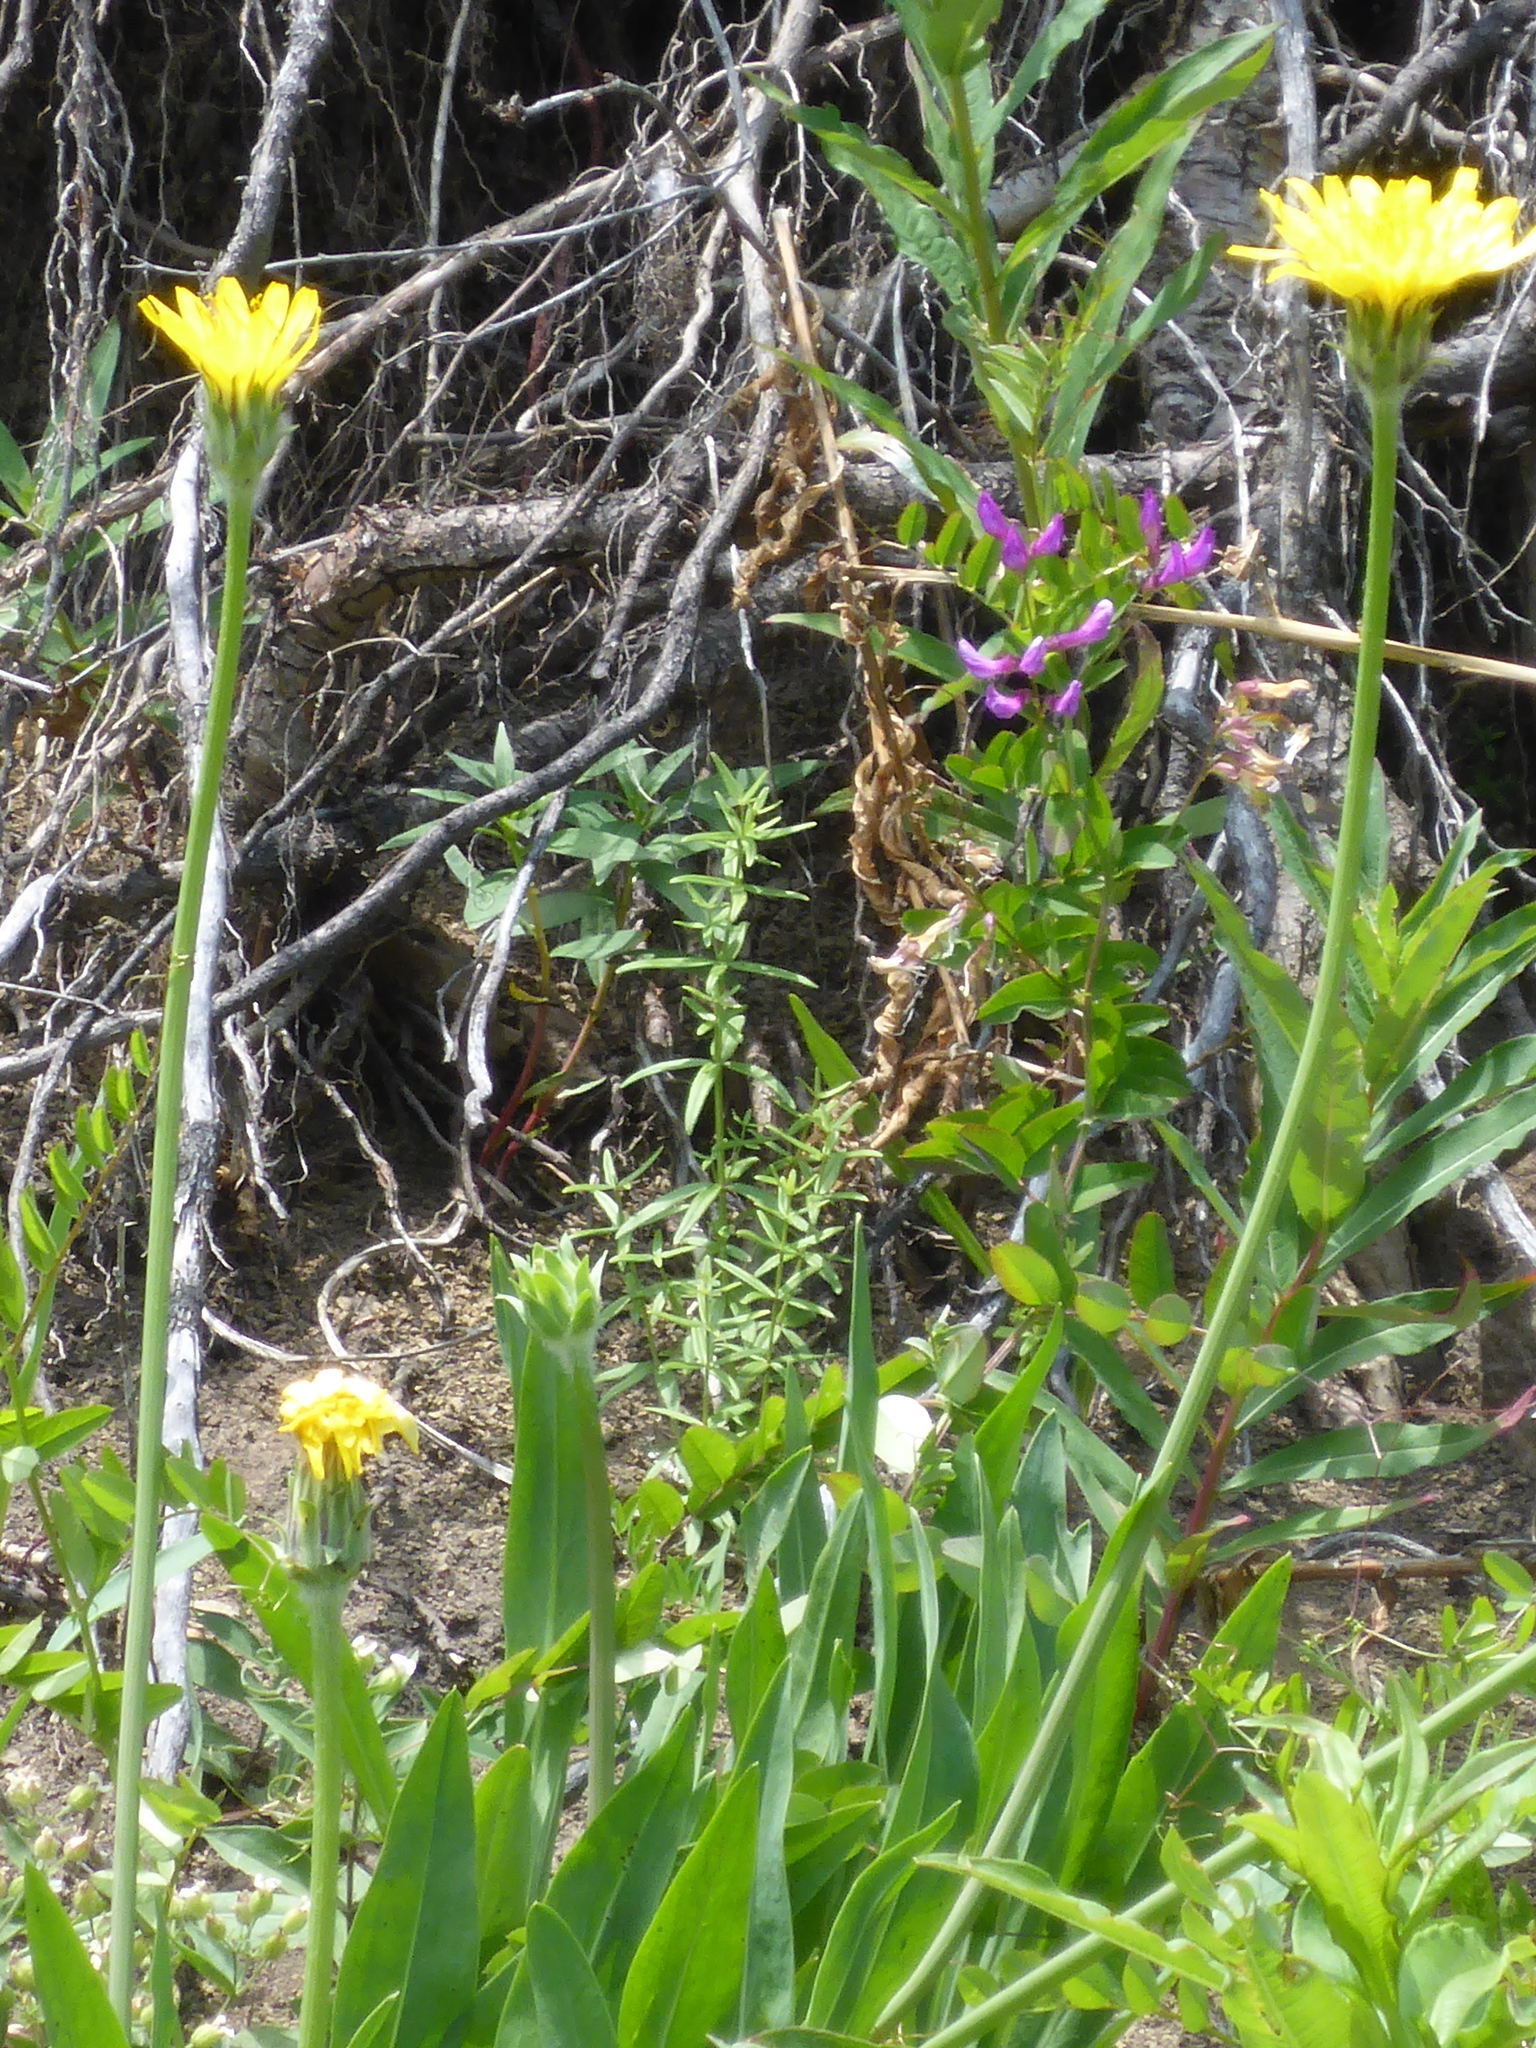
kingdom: Plantae
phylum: Tracheophyta
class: Magnoliopsida
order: Asterales
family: Asteraceae
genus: Agoseris
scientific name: Agoseris glauca
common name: Prairie agoseris
